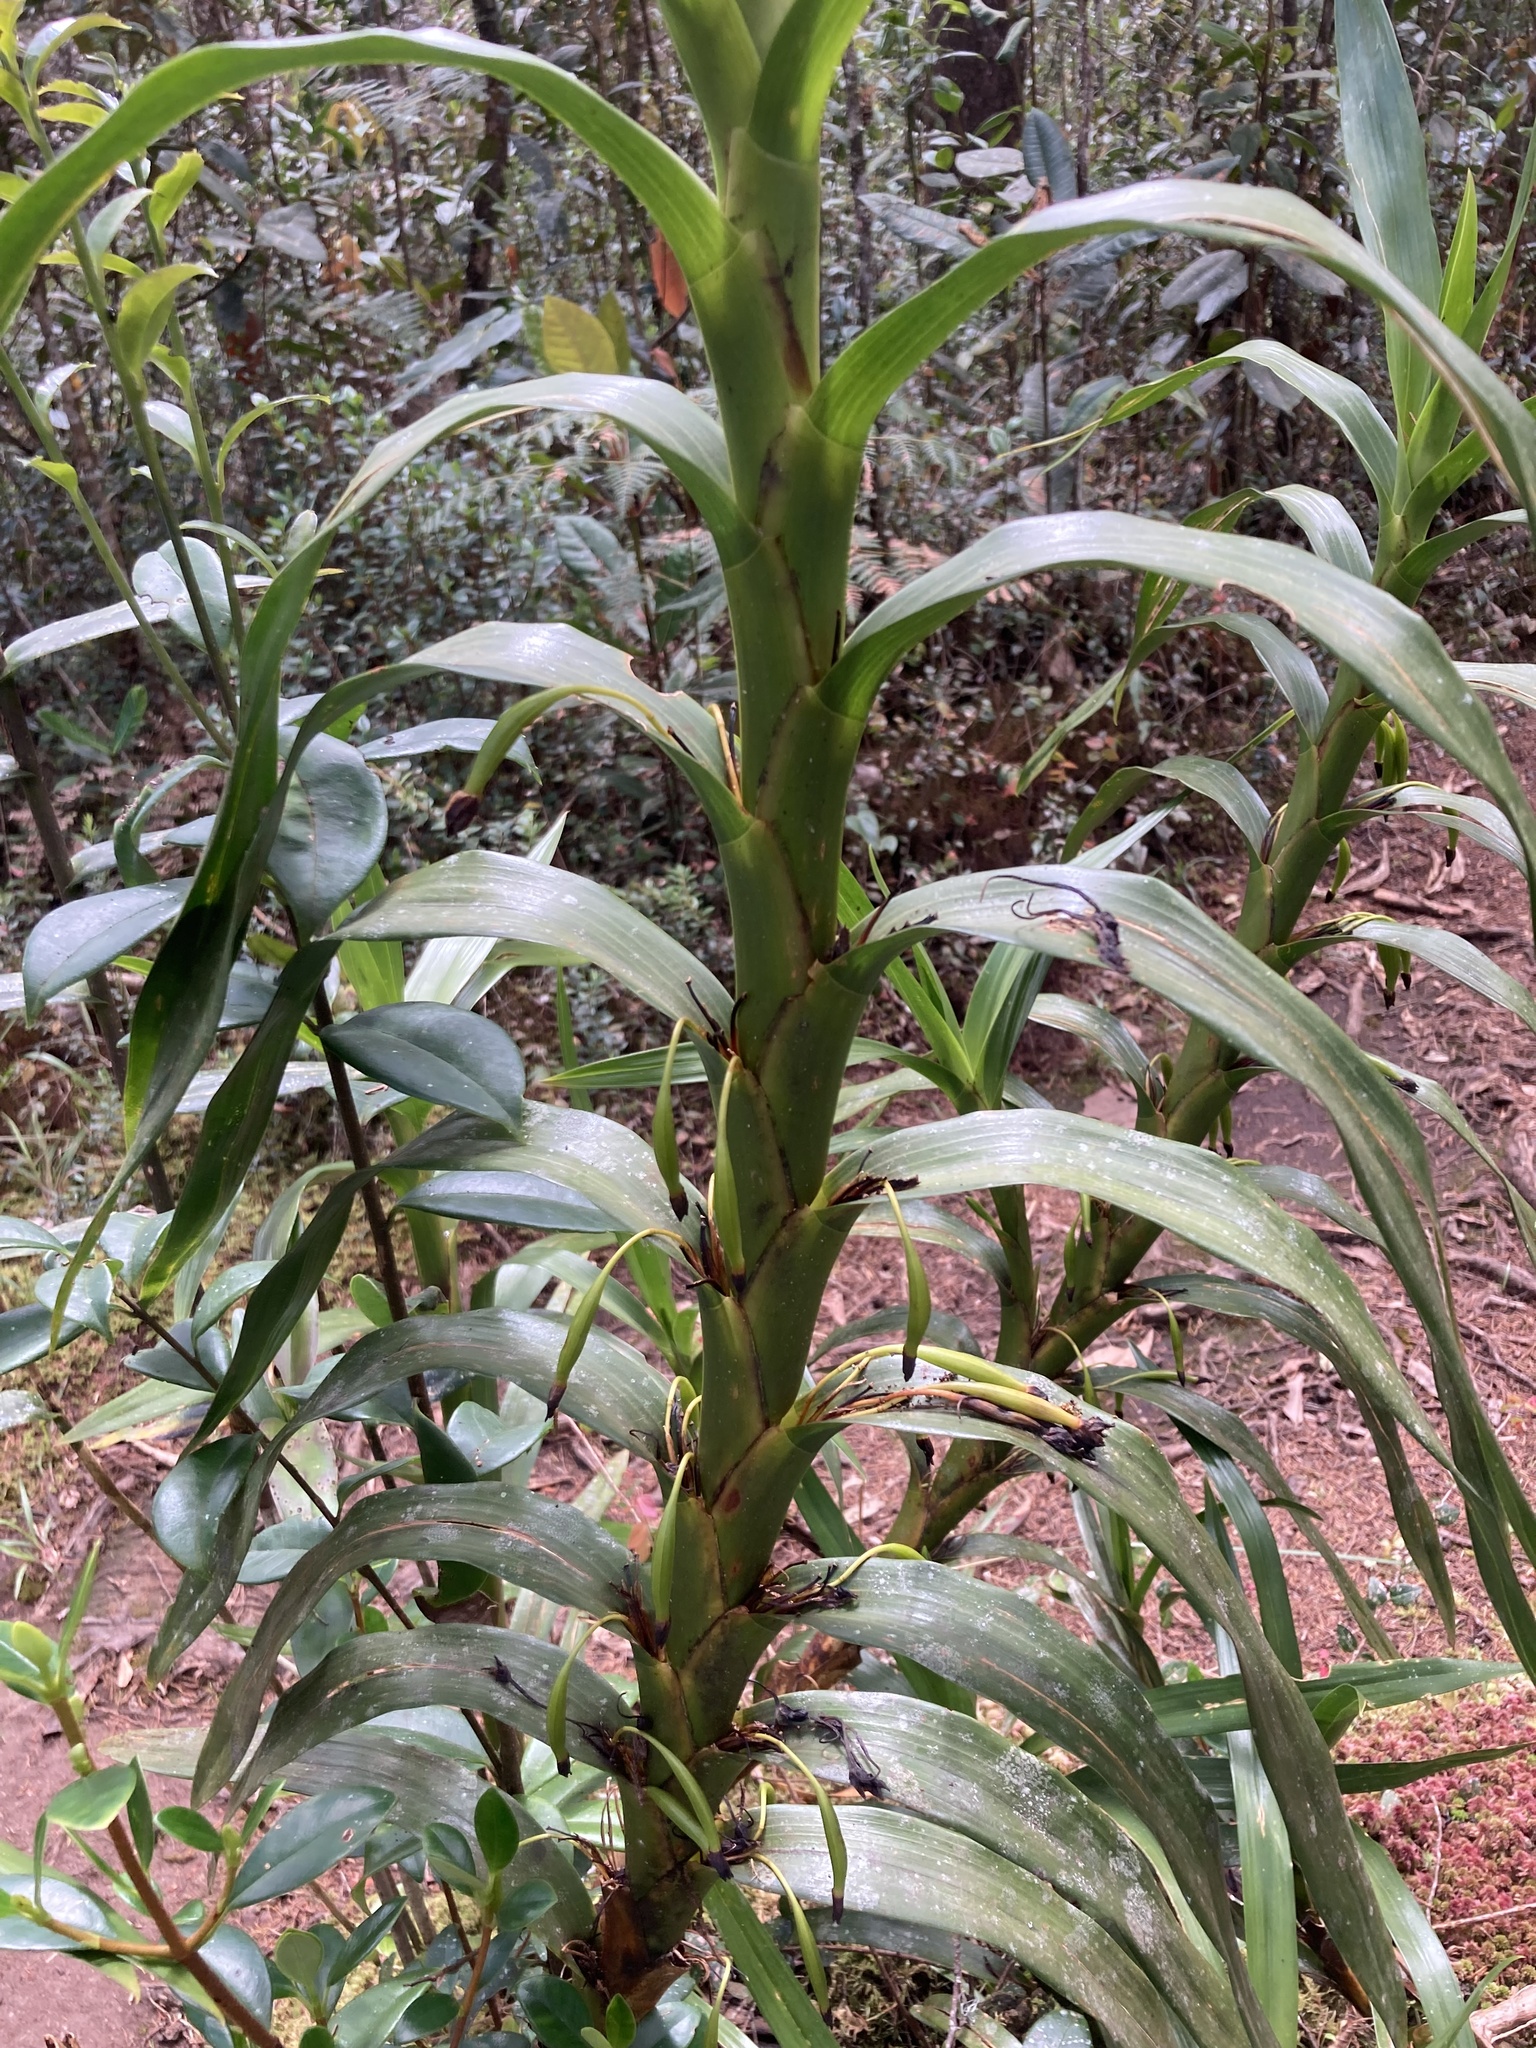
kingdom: Plantae
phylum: Tracheophyta
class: Liliopsida
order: Asparagales
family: Orchidaceae
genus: Maxillaria
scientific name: Maxillaria aurea
